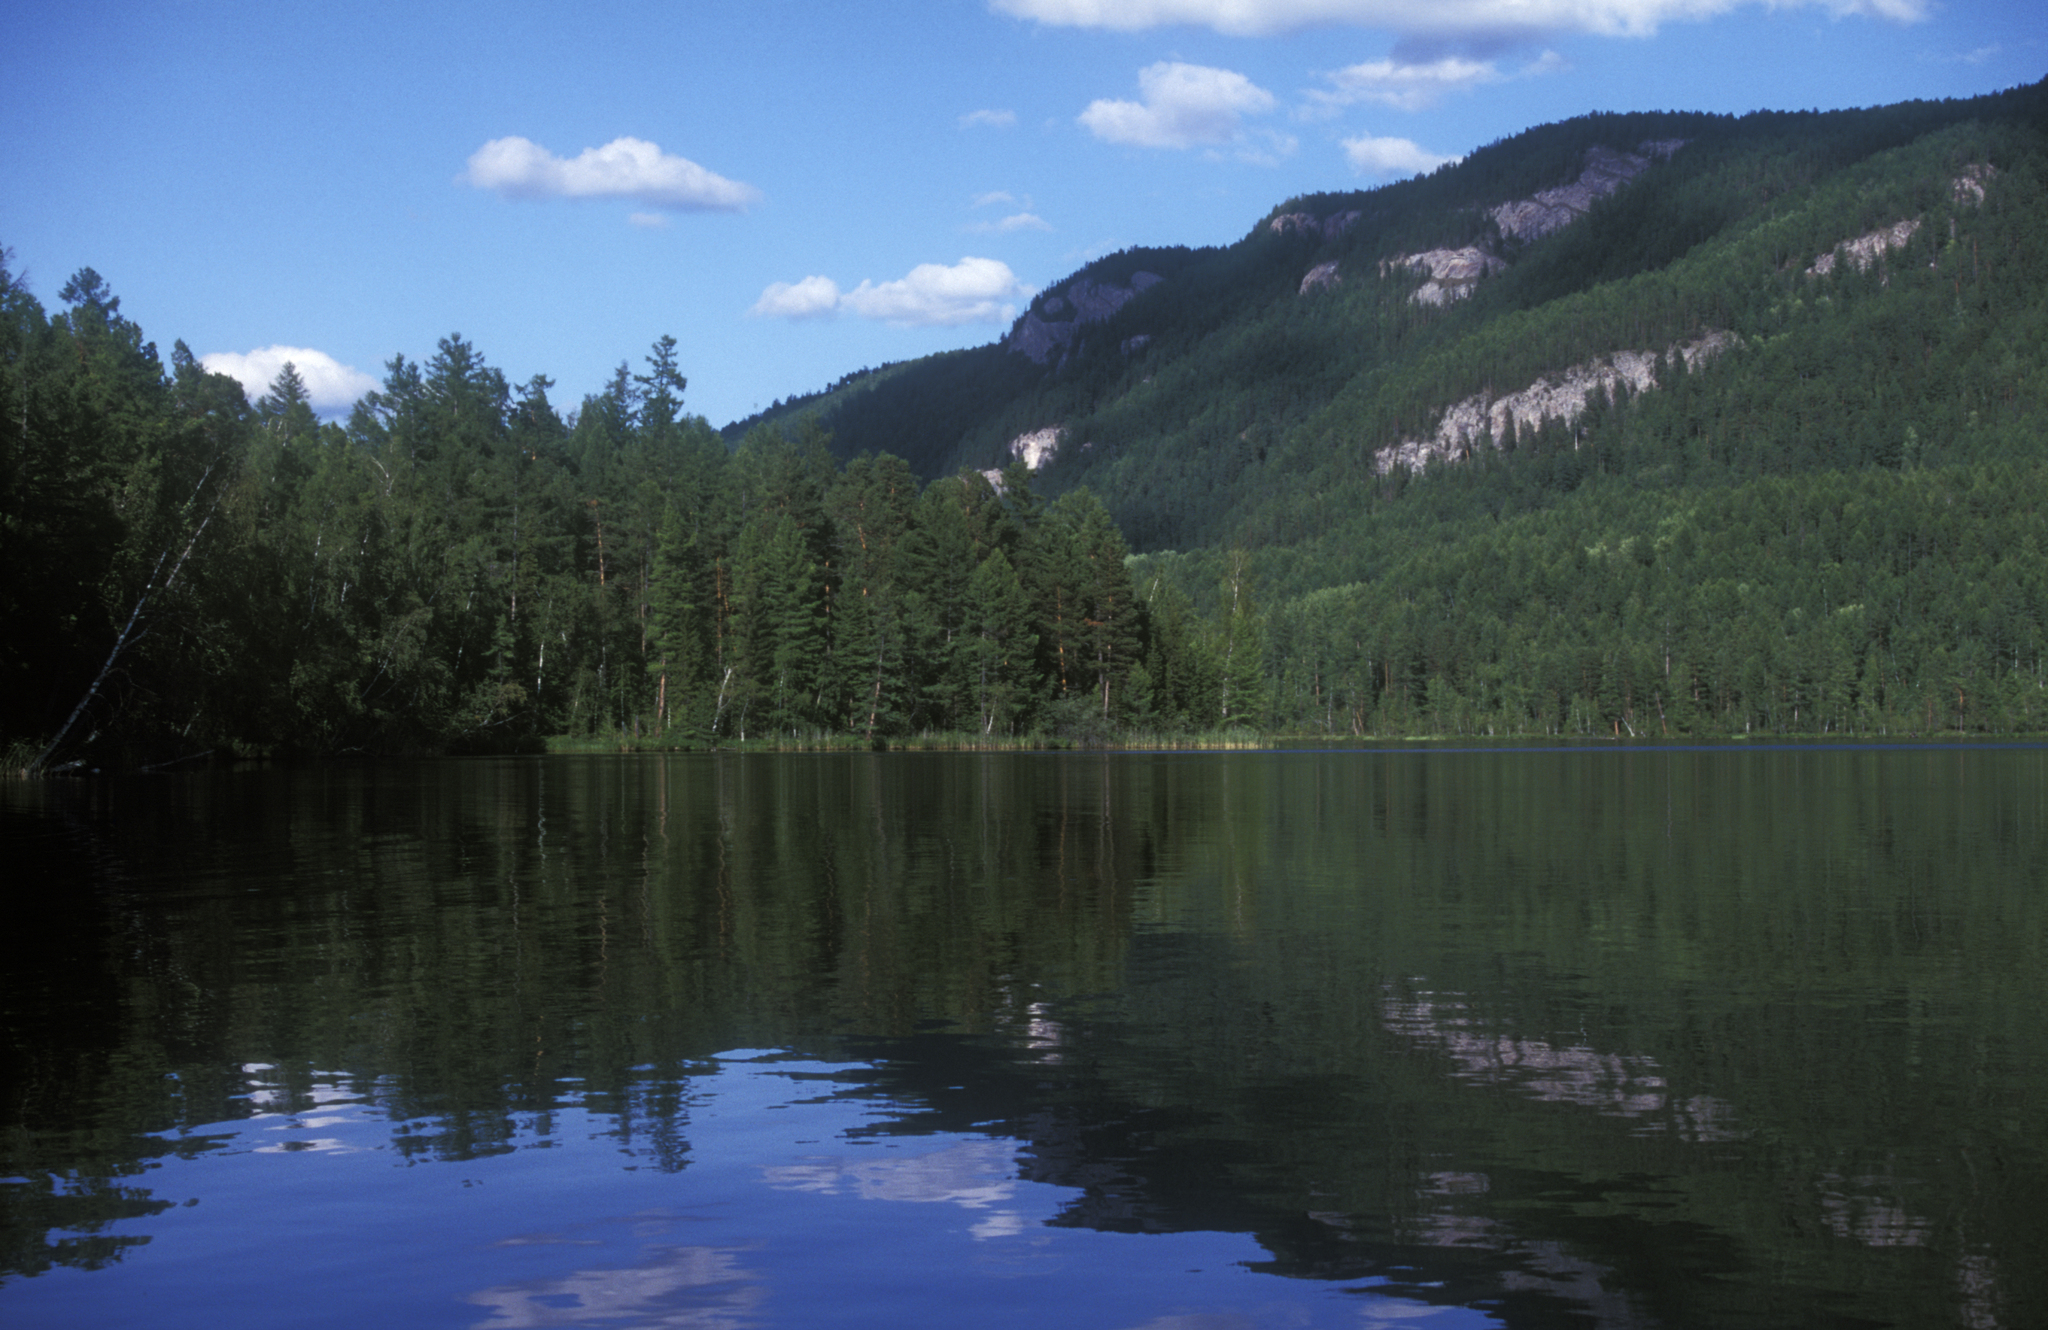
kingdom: Plantae
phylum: Tracheophyta
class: Pinopsida
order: Pinales
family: Pinaceae
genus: Pinus
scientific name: Pinus sylvestris
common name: Scots pine
